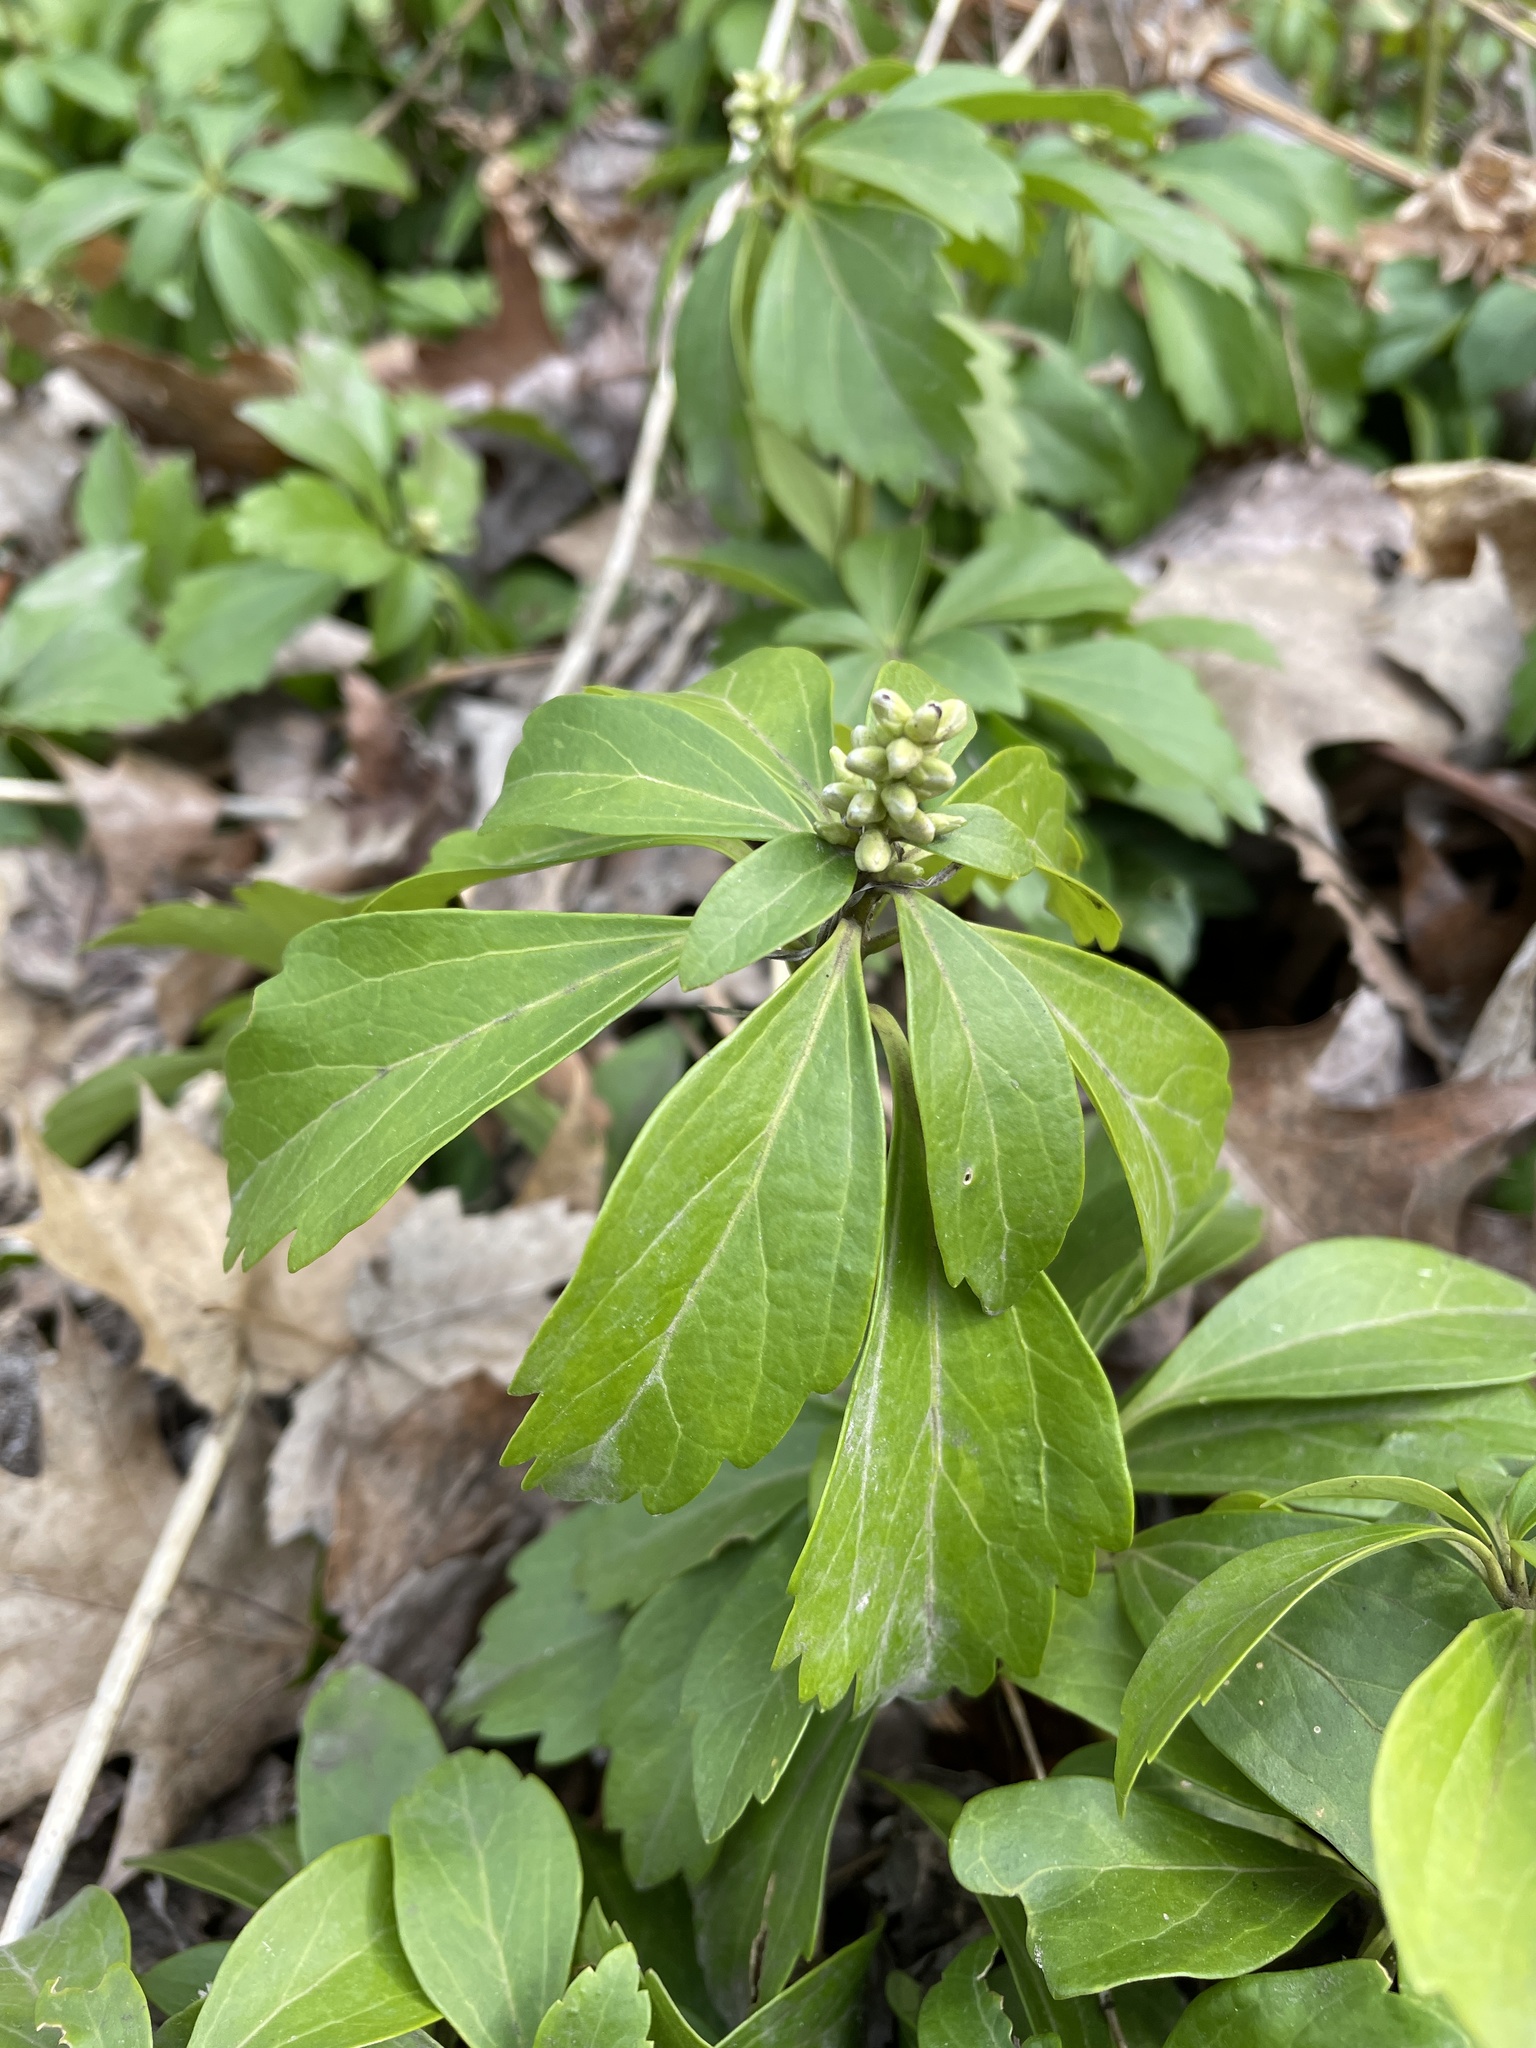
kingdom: Plantae
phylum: Tracheophyta
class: Magnoliopsida
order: Buxales
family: Buxaceae
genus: Pachysandra
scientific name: Pachysandra terminalis
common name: Japanese pachysandra
